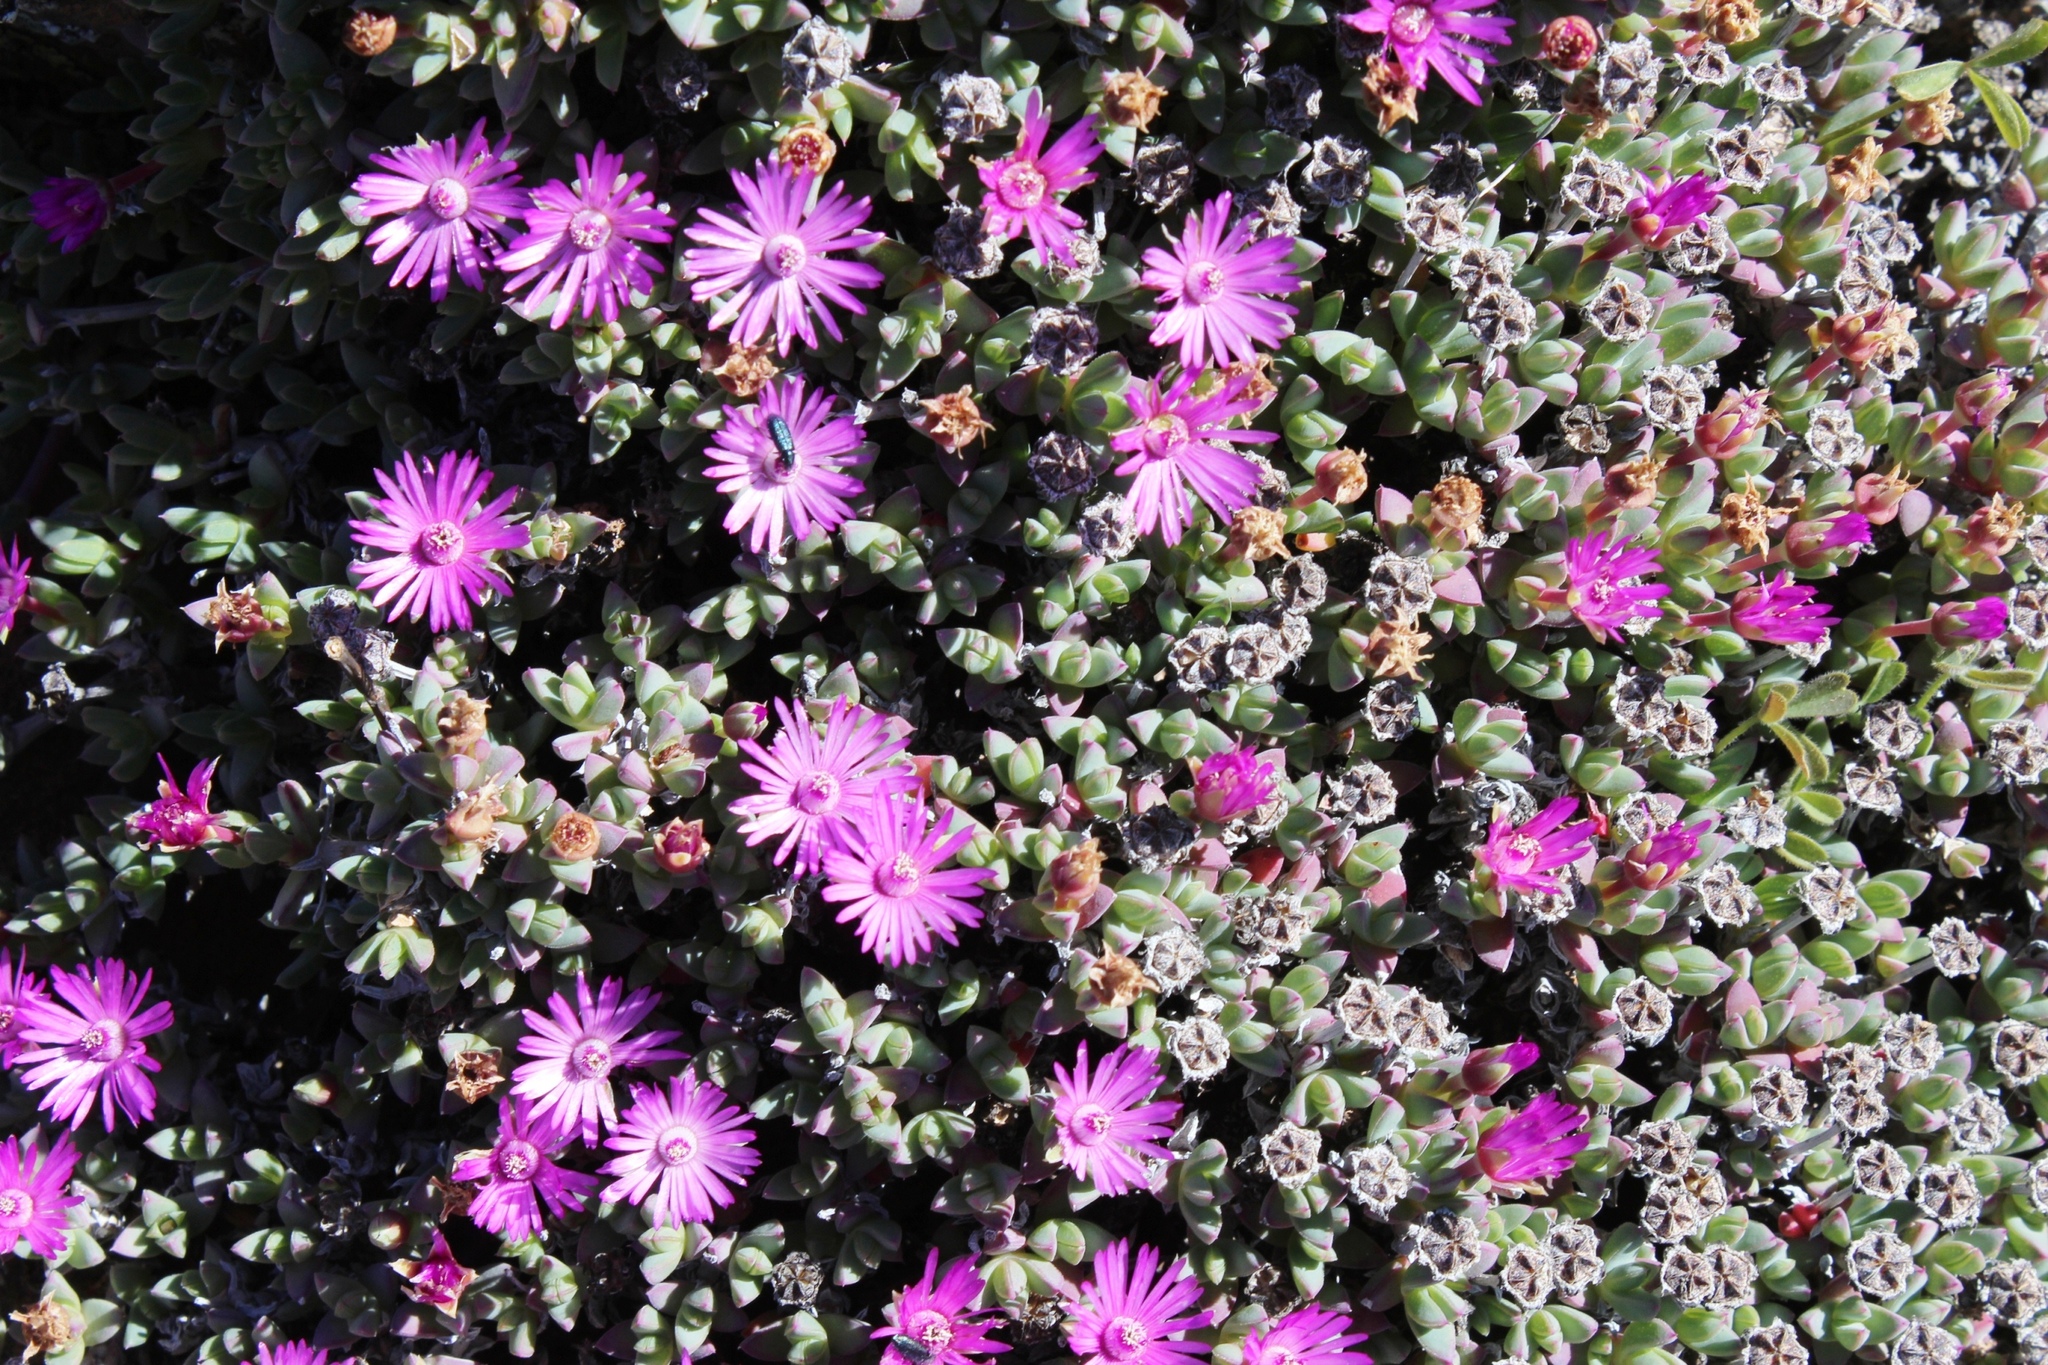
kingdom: Plantae
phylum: Tracheophyta
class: Magnoliopsida
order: Caryophyllales
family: Aizoaceae
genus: Antimima
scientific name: Antimima pumila
